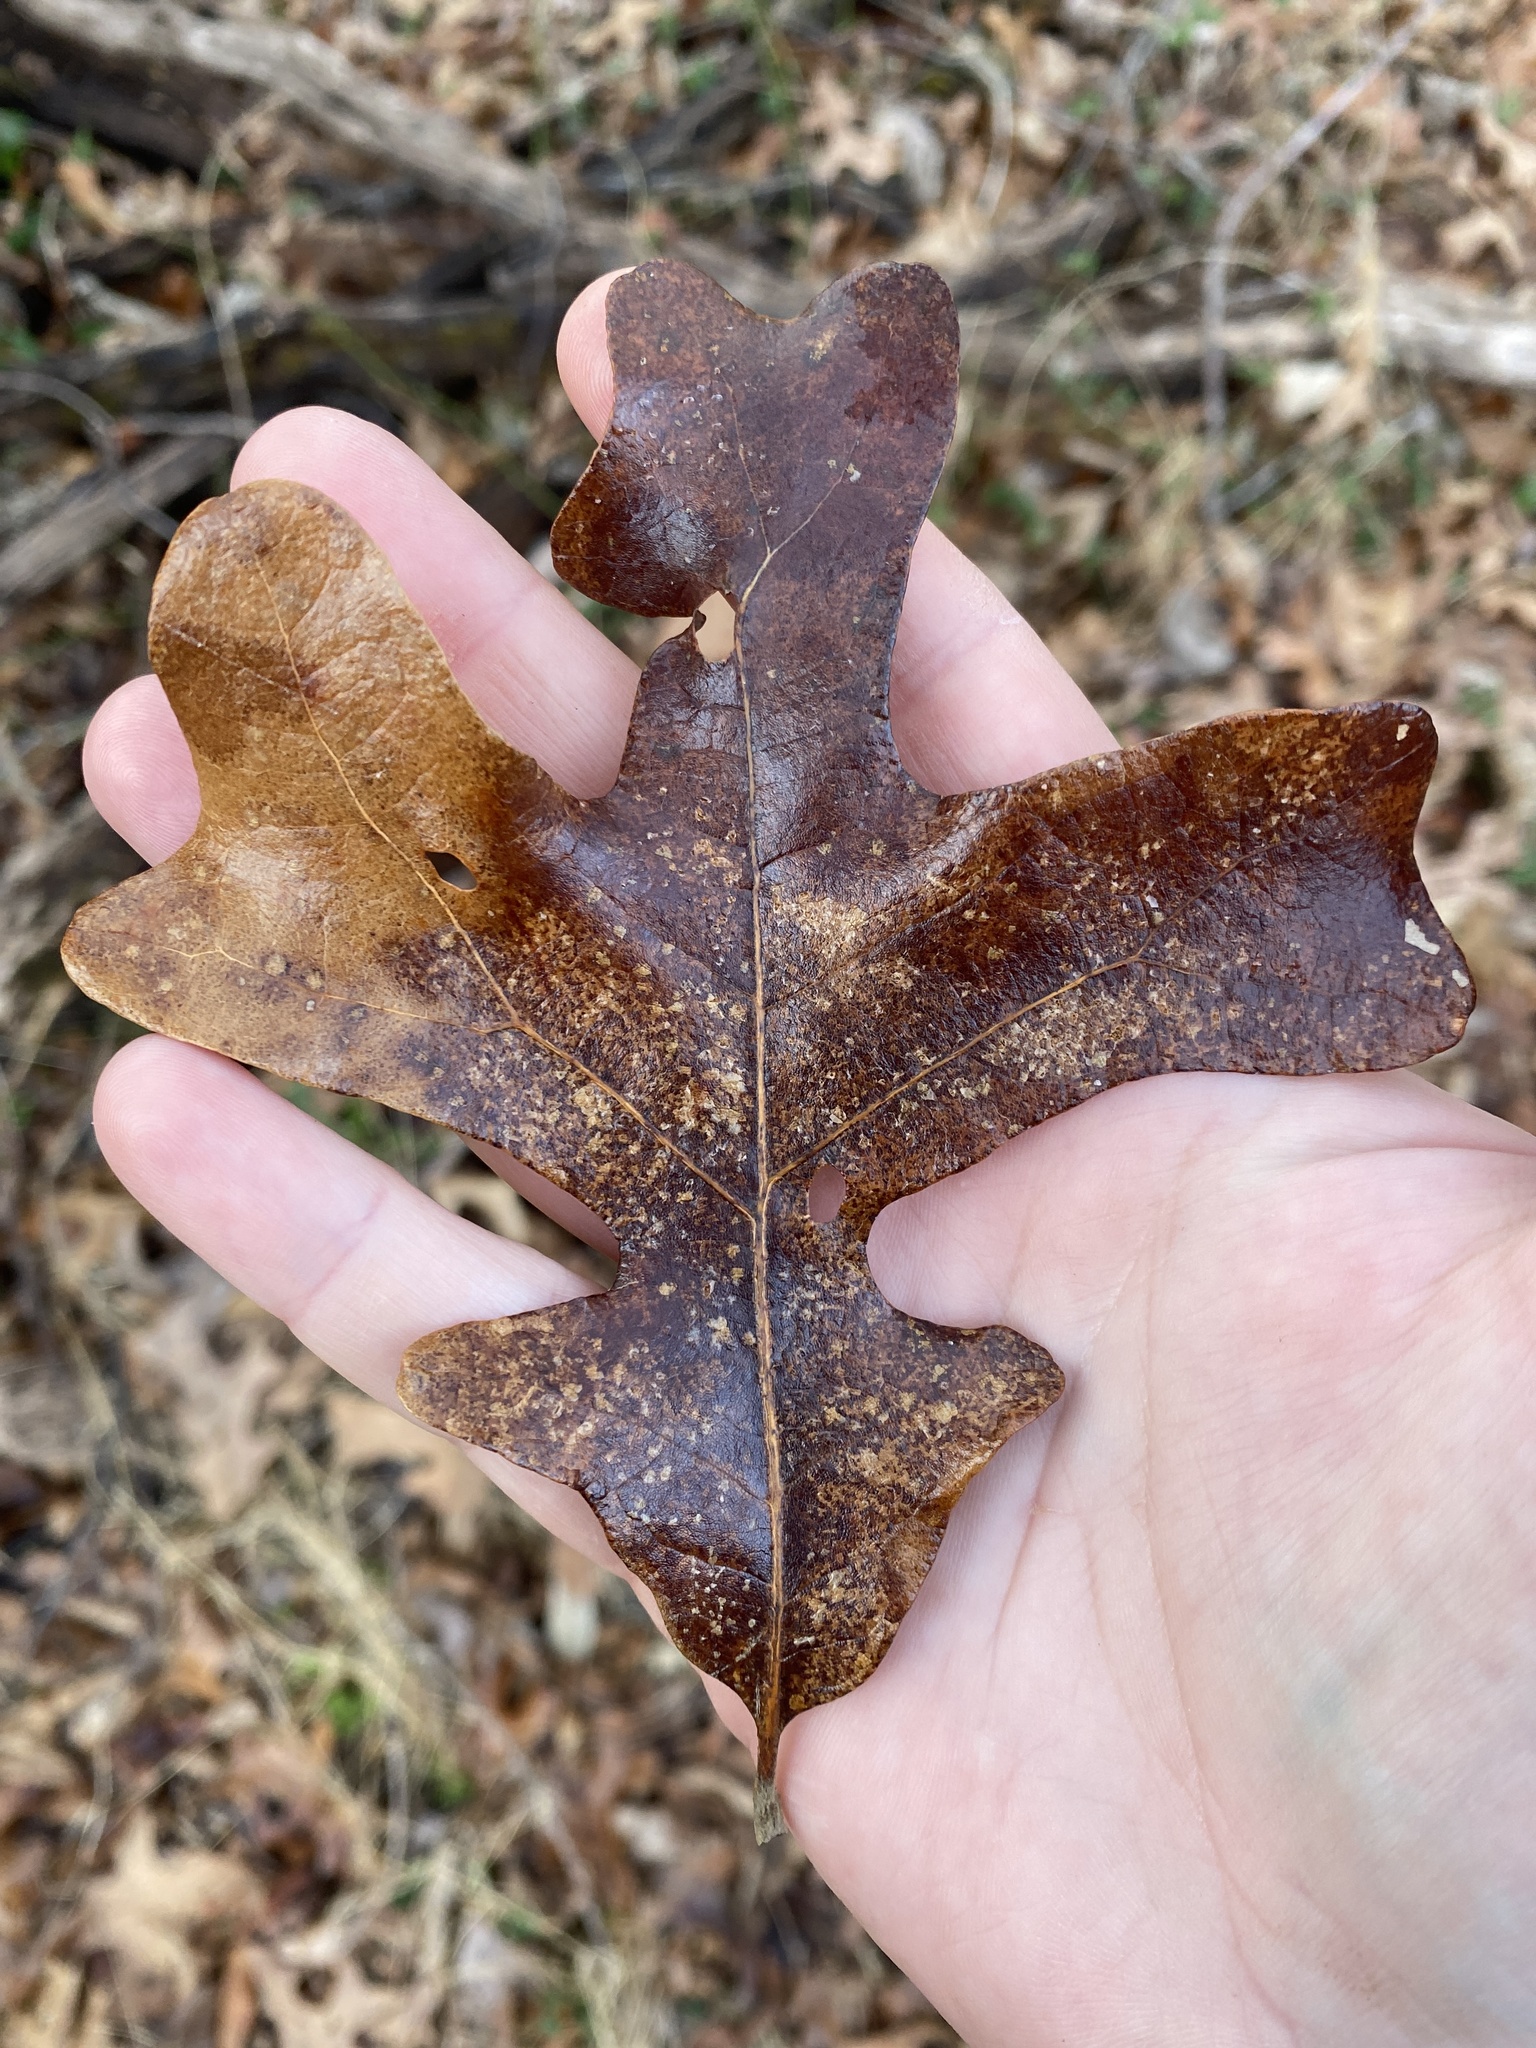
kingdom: Plantae
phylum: Tracheophyta
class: Magnoliopsida
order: Fagales
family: Fagaceae
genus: Quercus
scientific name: Quercus stellata
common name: Post oak
